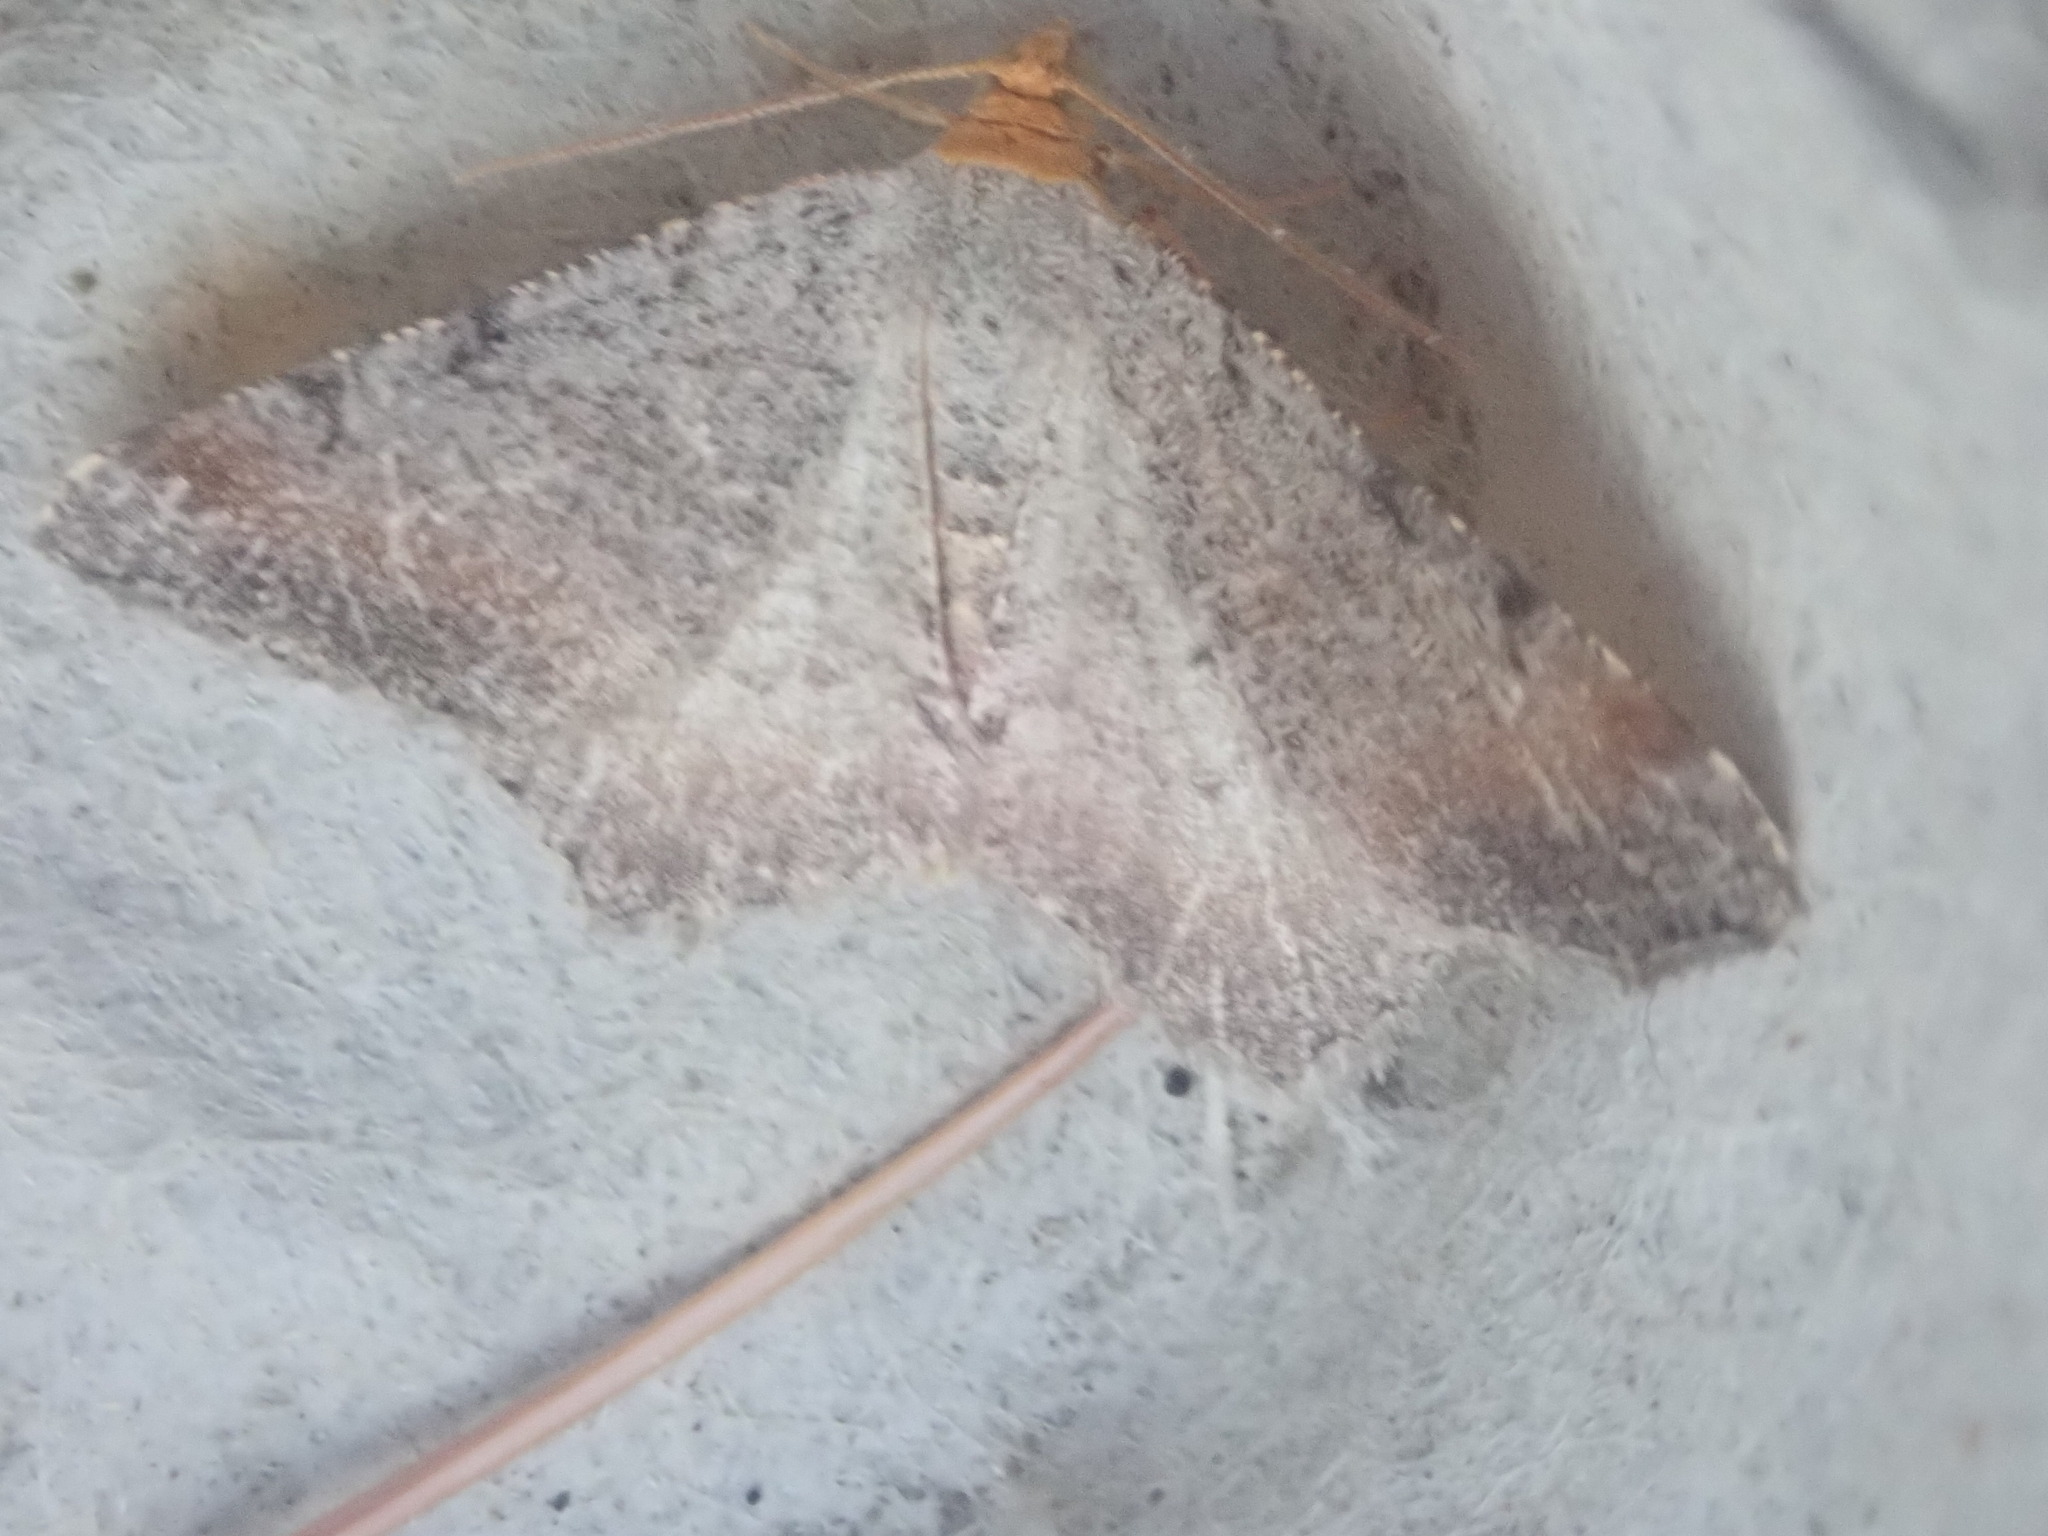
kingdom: Animalia
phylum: Arthropoda
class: Insecta
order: Lepidoptera
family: Geometridae
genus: Macaria
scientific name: Macaria minorata
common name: Minor angle moth
